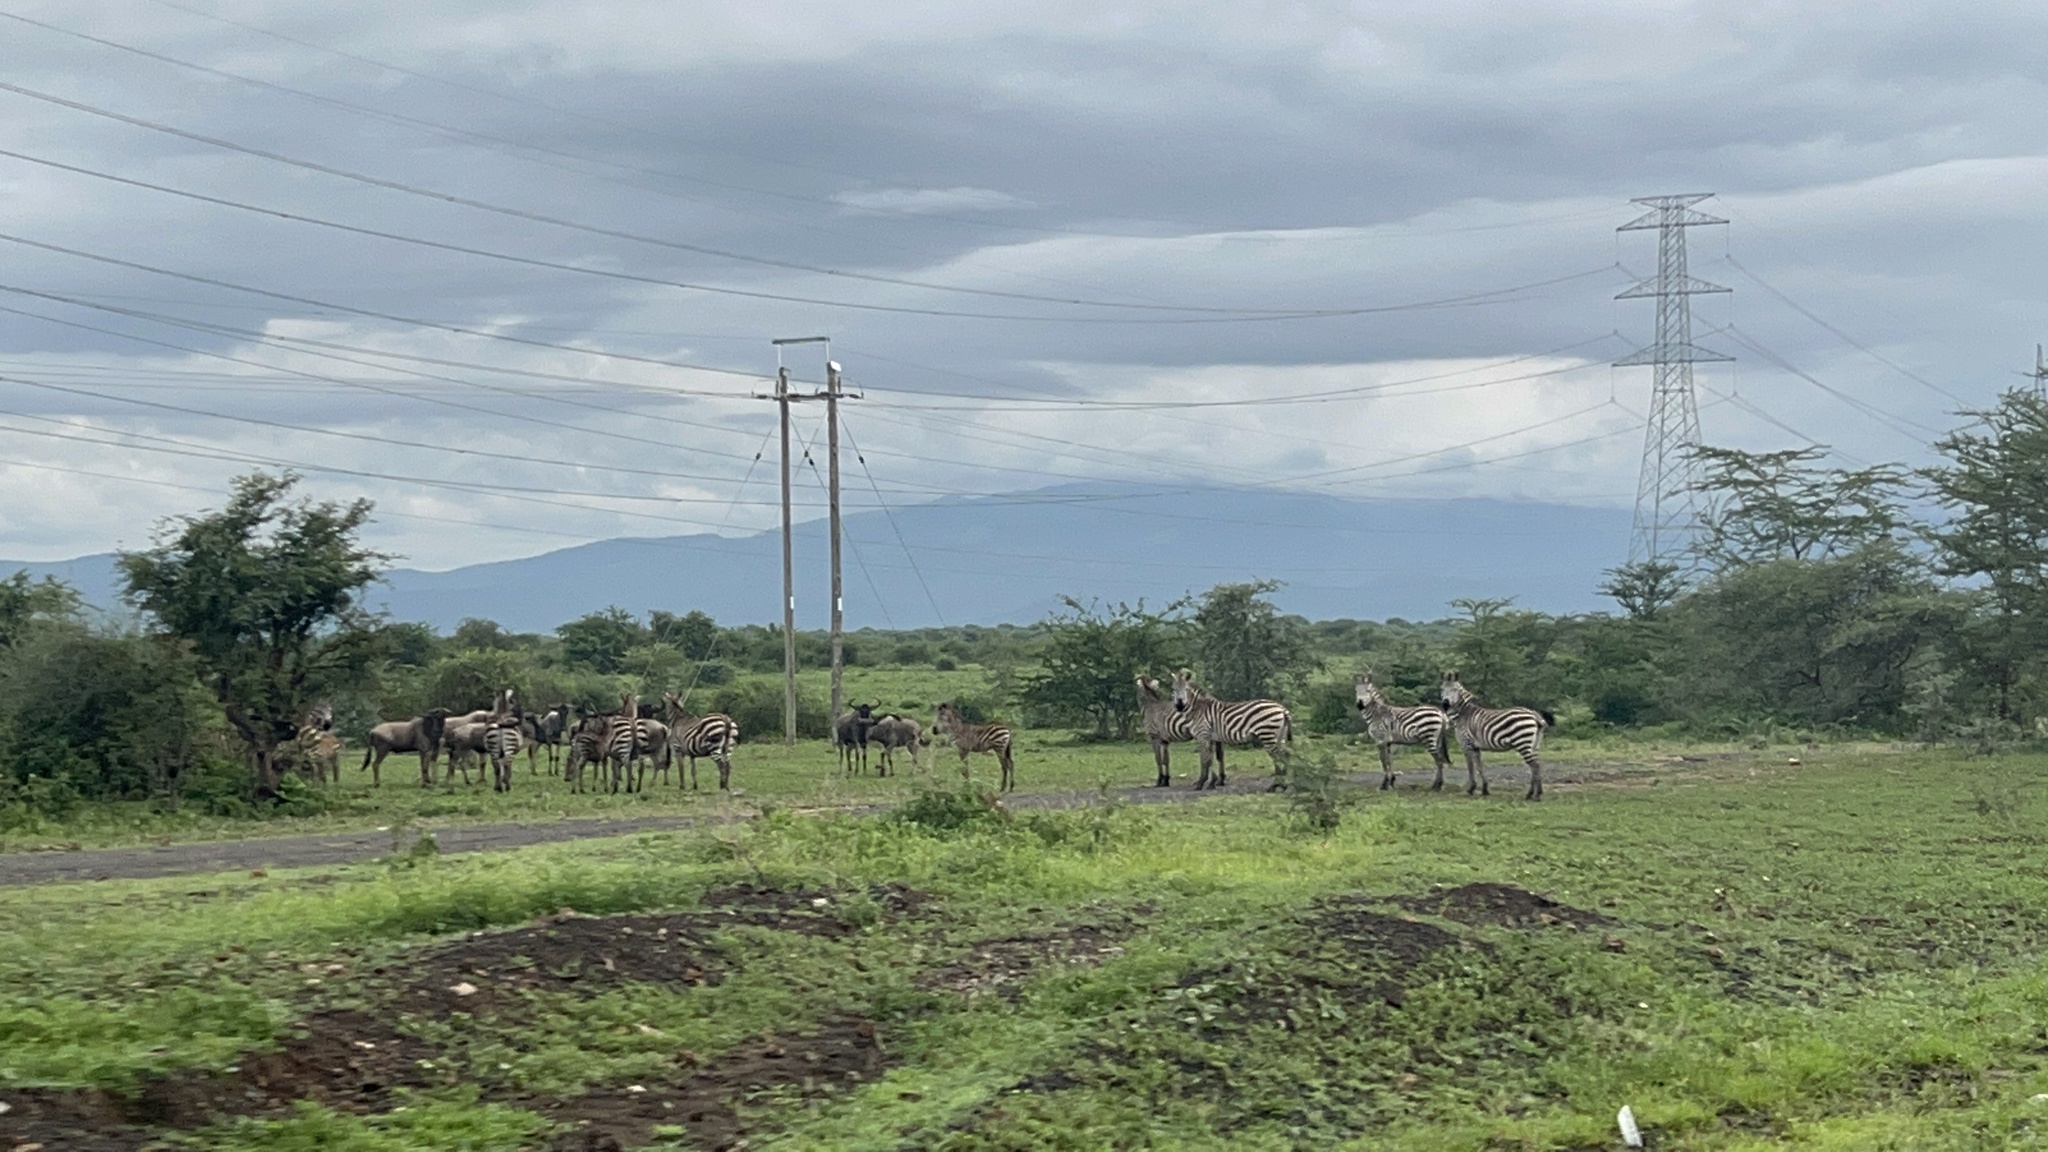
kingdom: Animalia
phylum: Chordata
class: Mammalia
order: Perissodactyla
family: Equidae
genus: Equus
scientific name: Equus quagga
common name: Plains zebra
